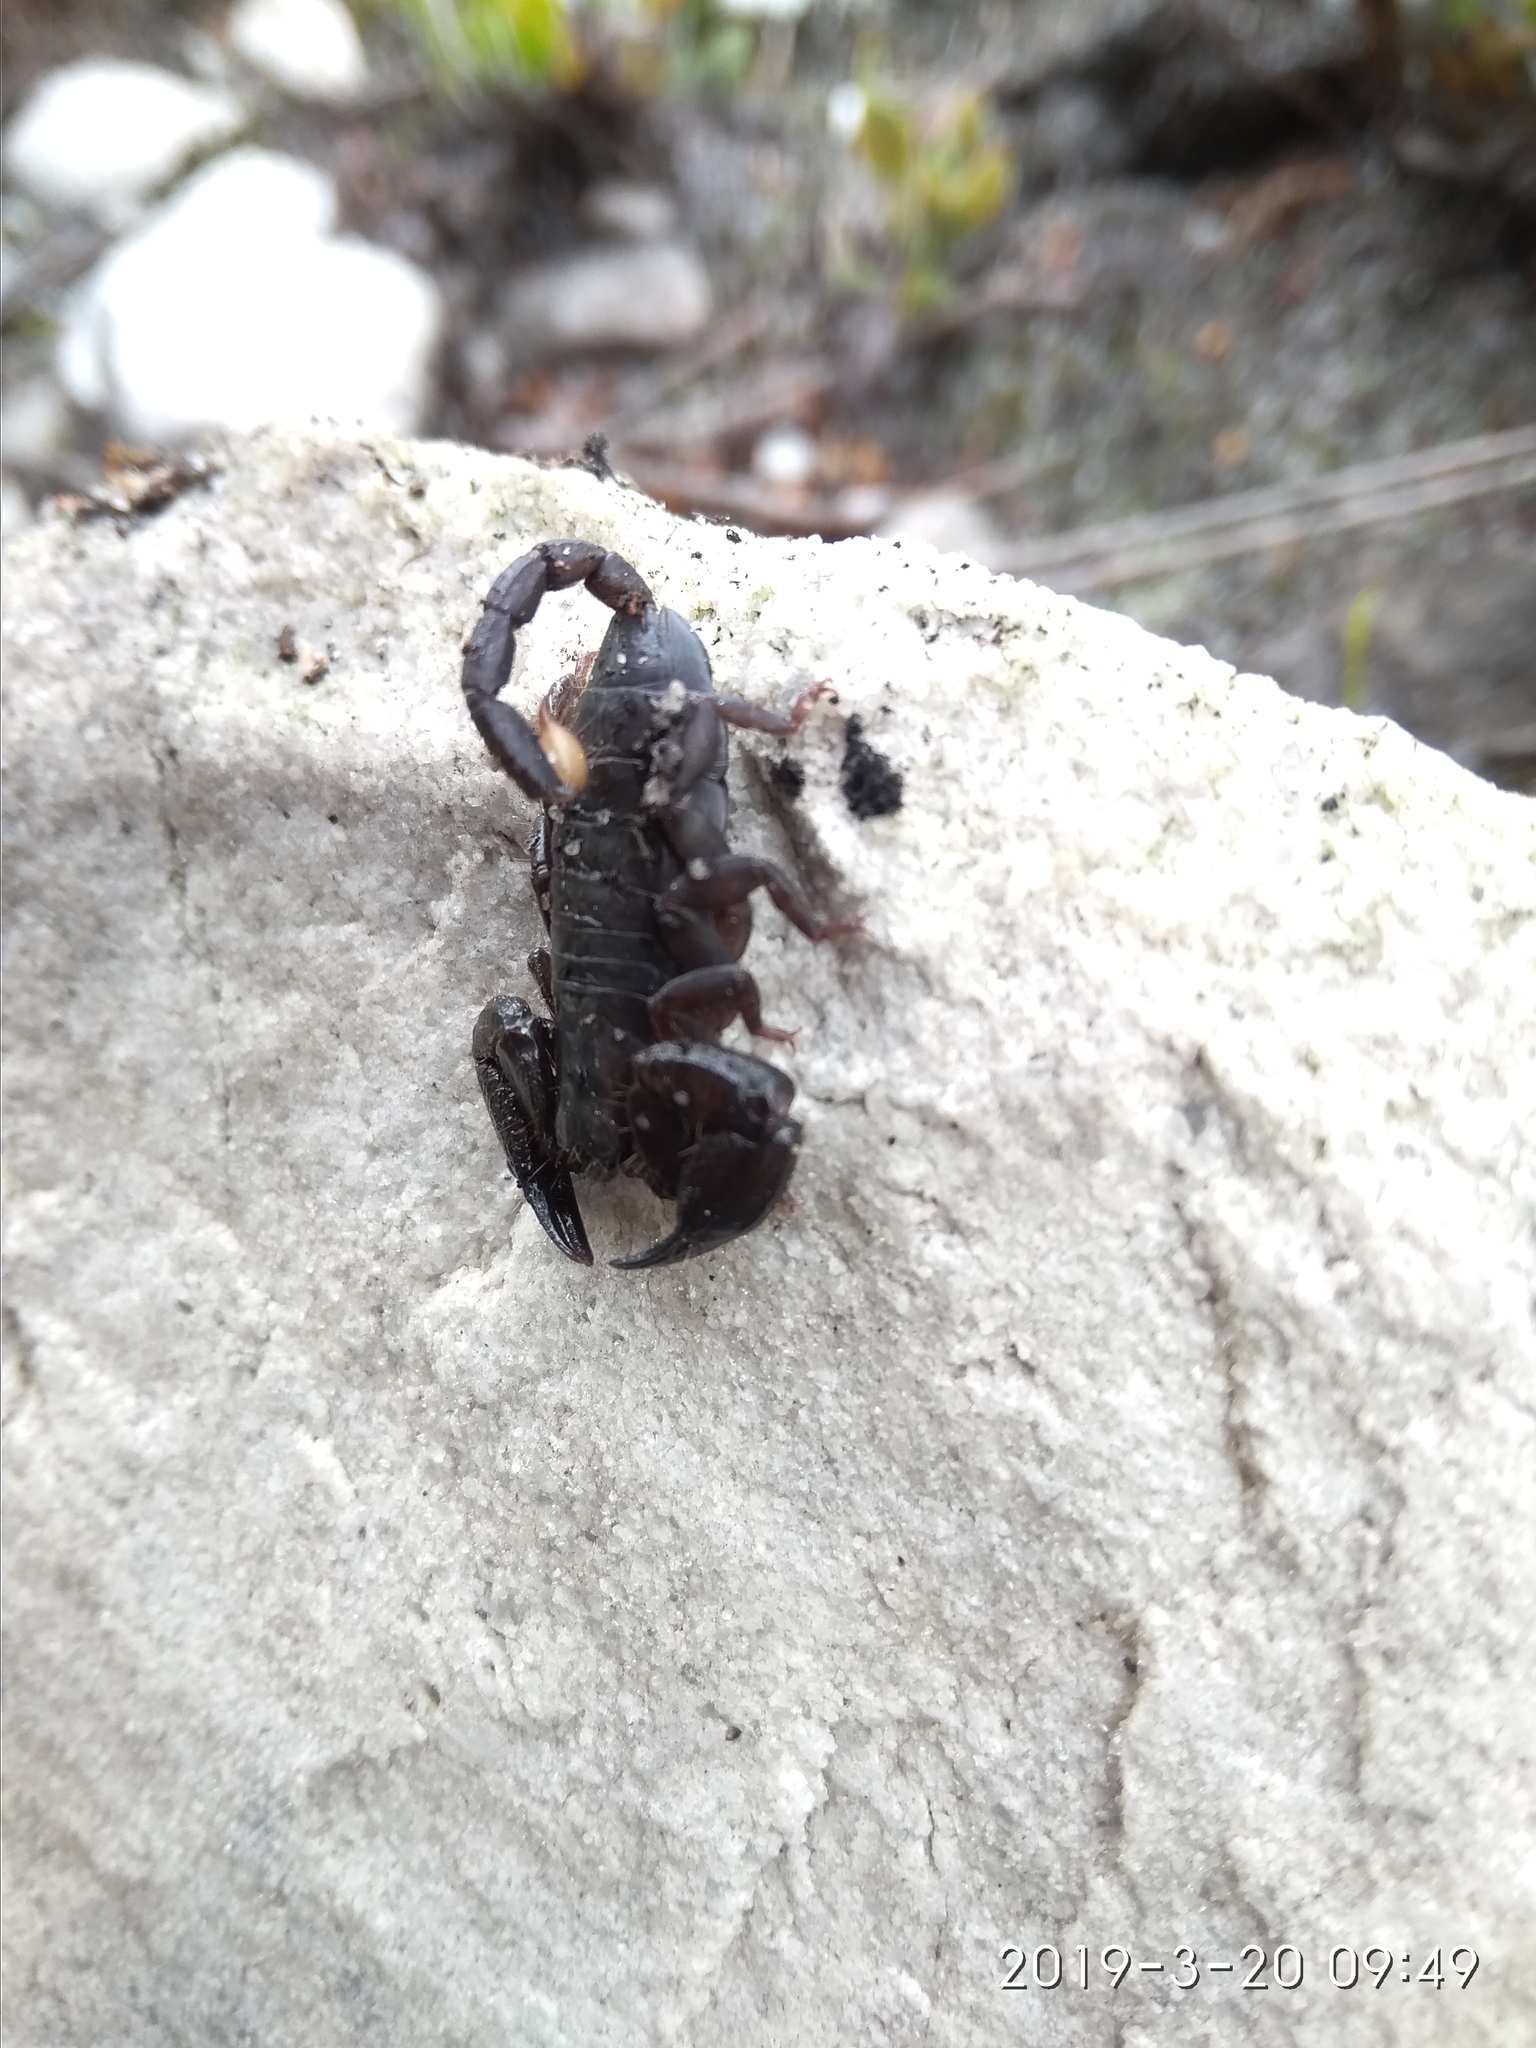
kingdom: Animalia
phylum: Arthropoda
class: Arachnida
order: Scorpiones
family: Hormuridae
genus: Opisthacanthus
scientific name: Opisthacanthus capensis
